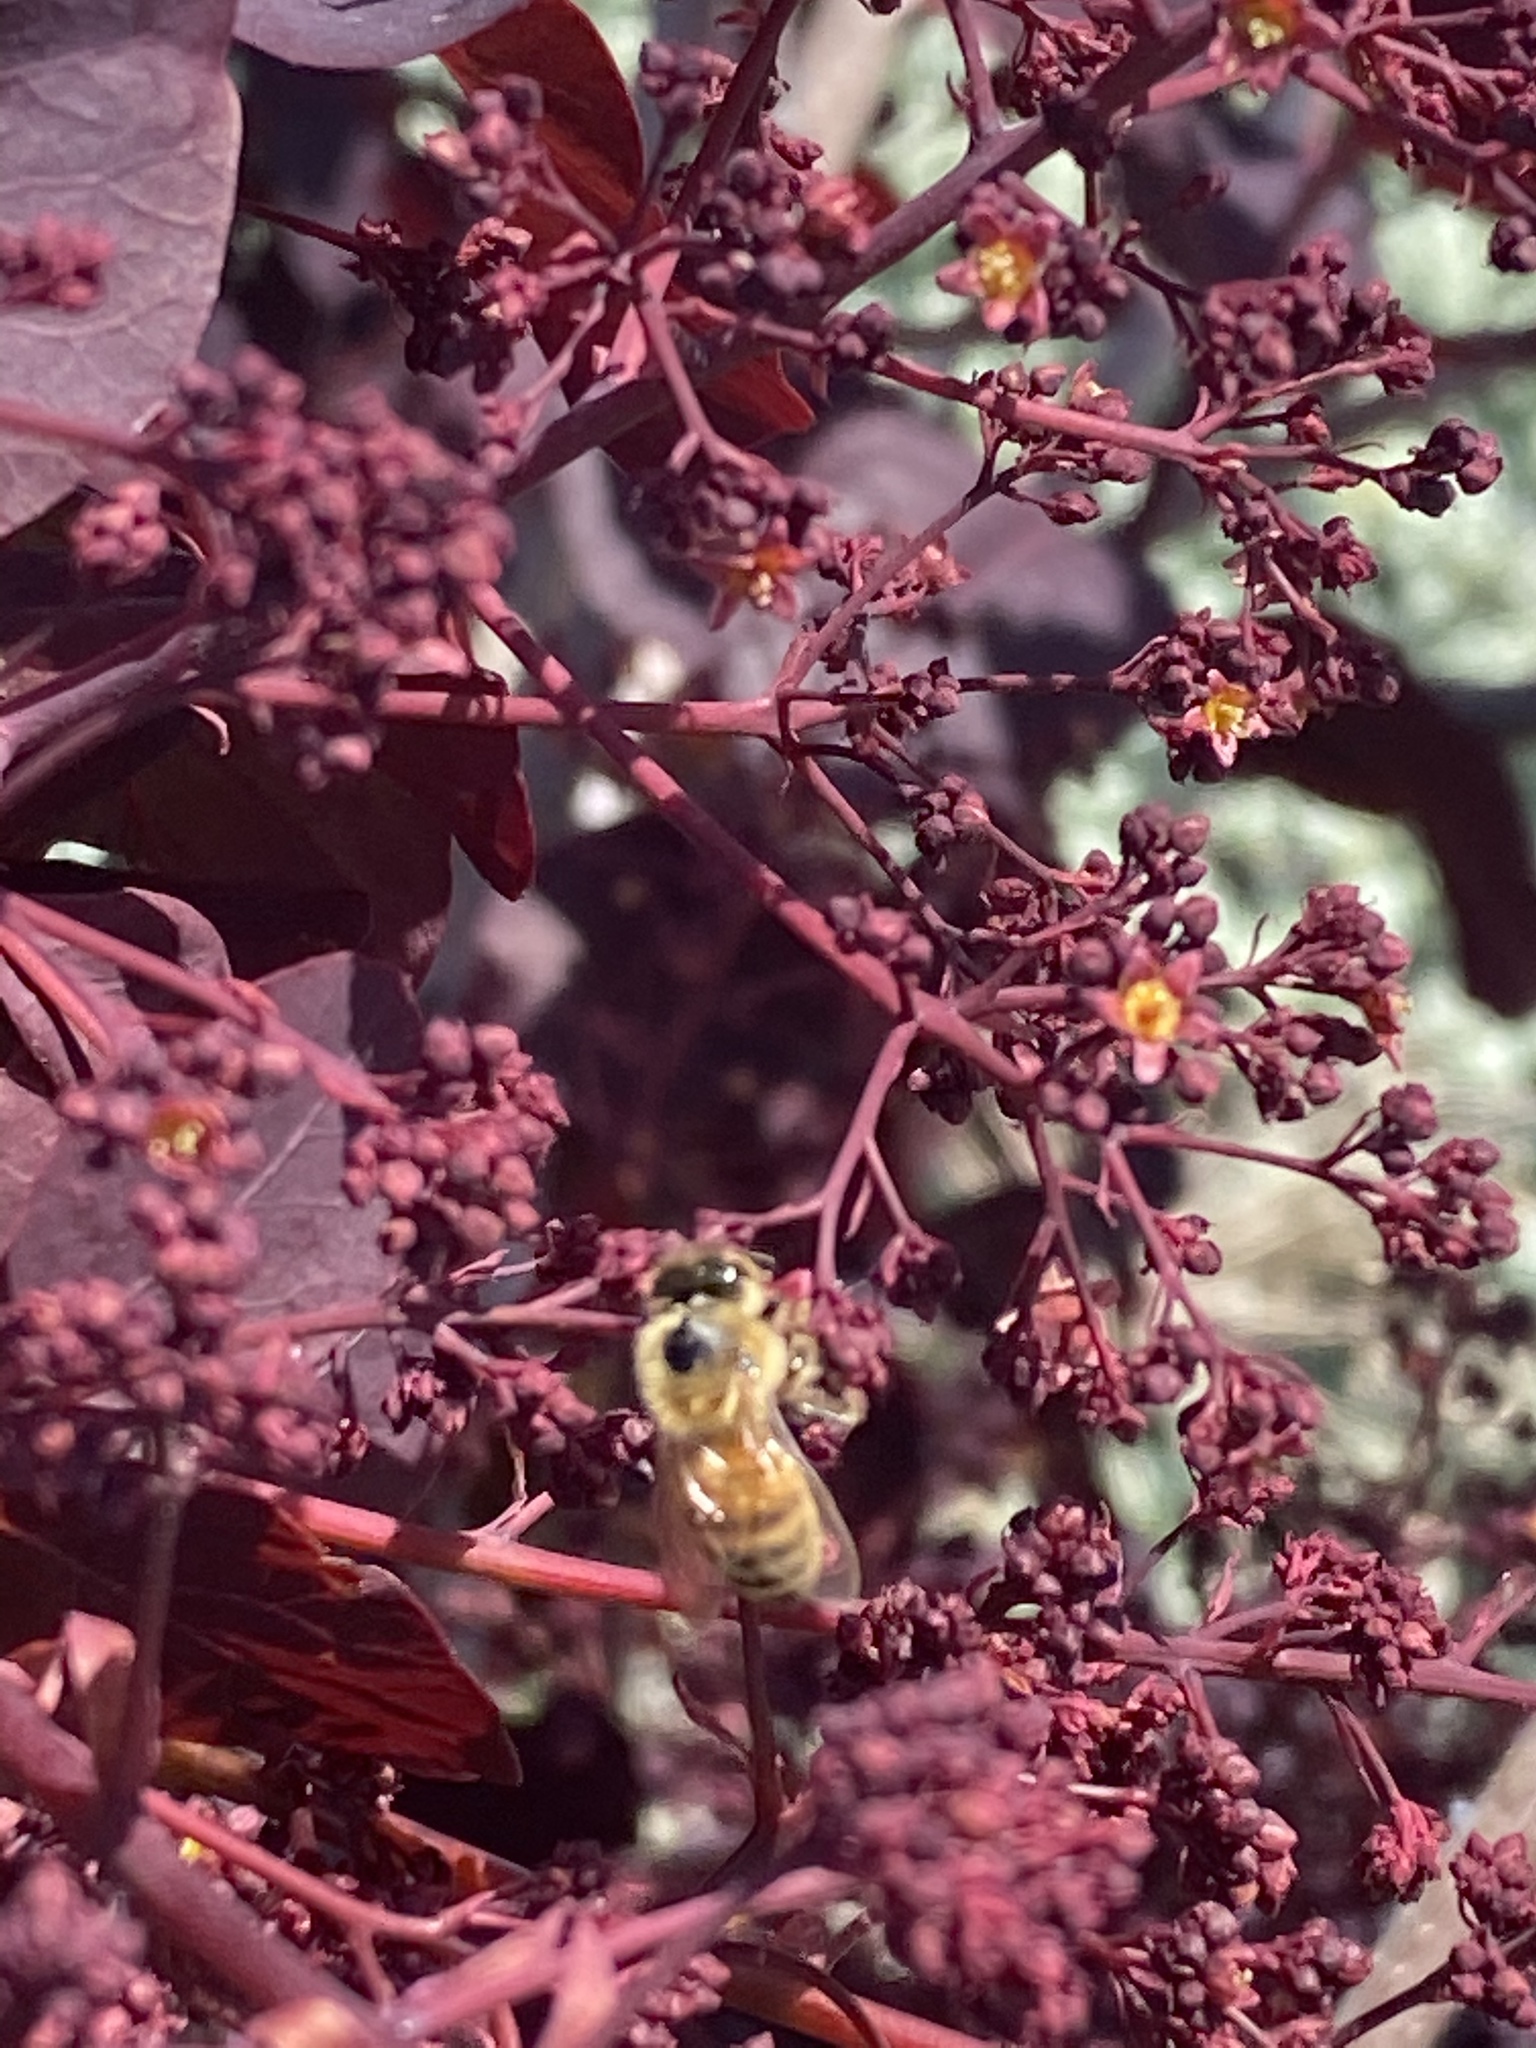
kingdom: Animalia
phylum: Arthropoda
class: Insecta
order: Hymenoptera
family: Apidae
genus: Apis
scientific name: Apis mellifera
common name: Honey bee
